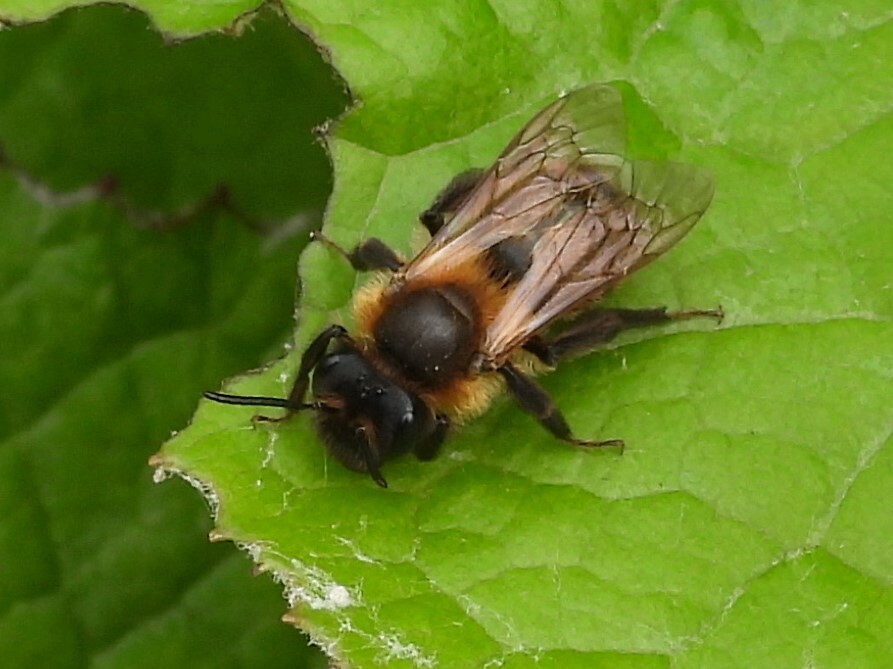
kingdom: Animalia
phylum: Arthropoda
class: Insecta
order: Hymenoptera
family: Andrenidae
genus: Andrena
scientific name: Andrena carantonica
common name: Chocolate mining bee
